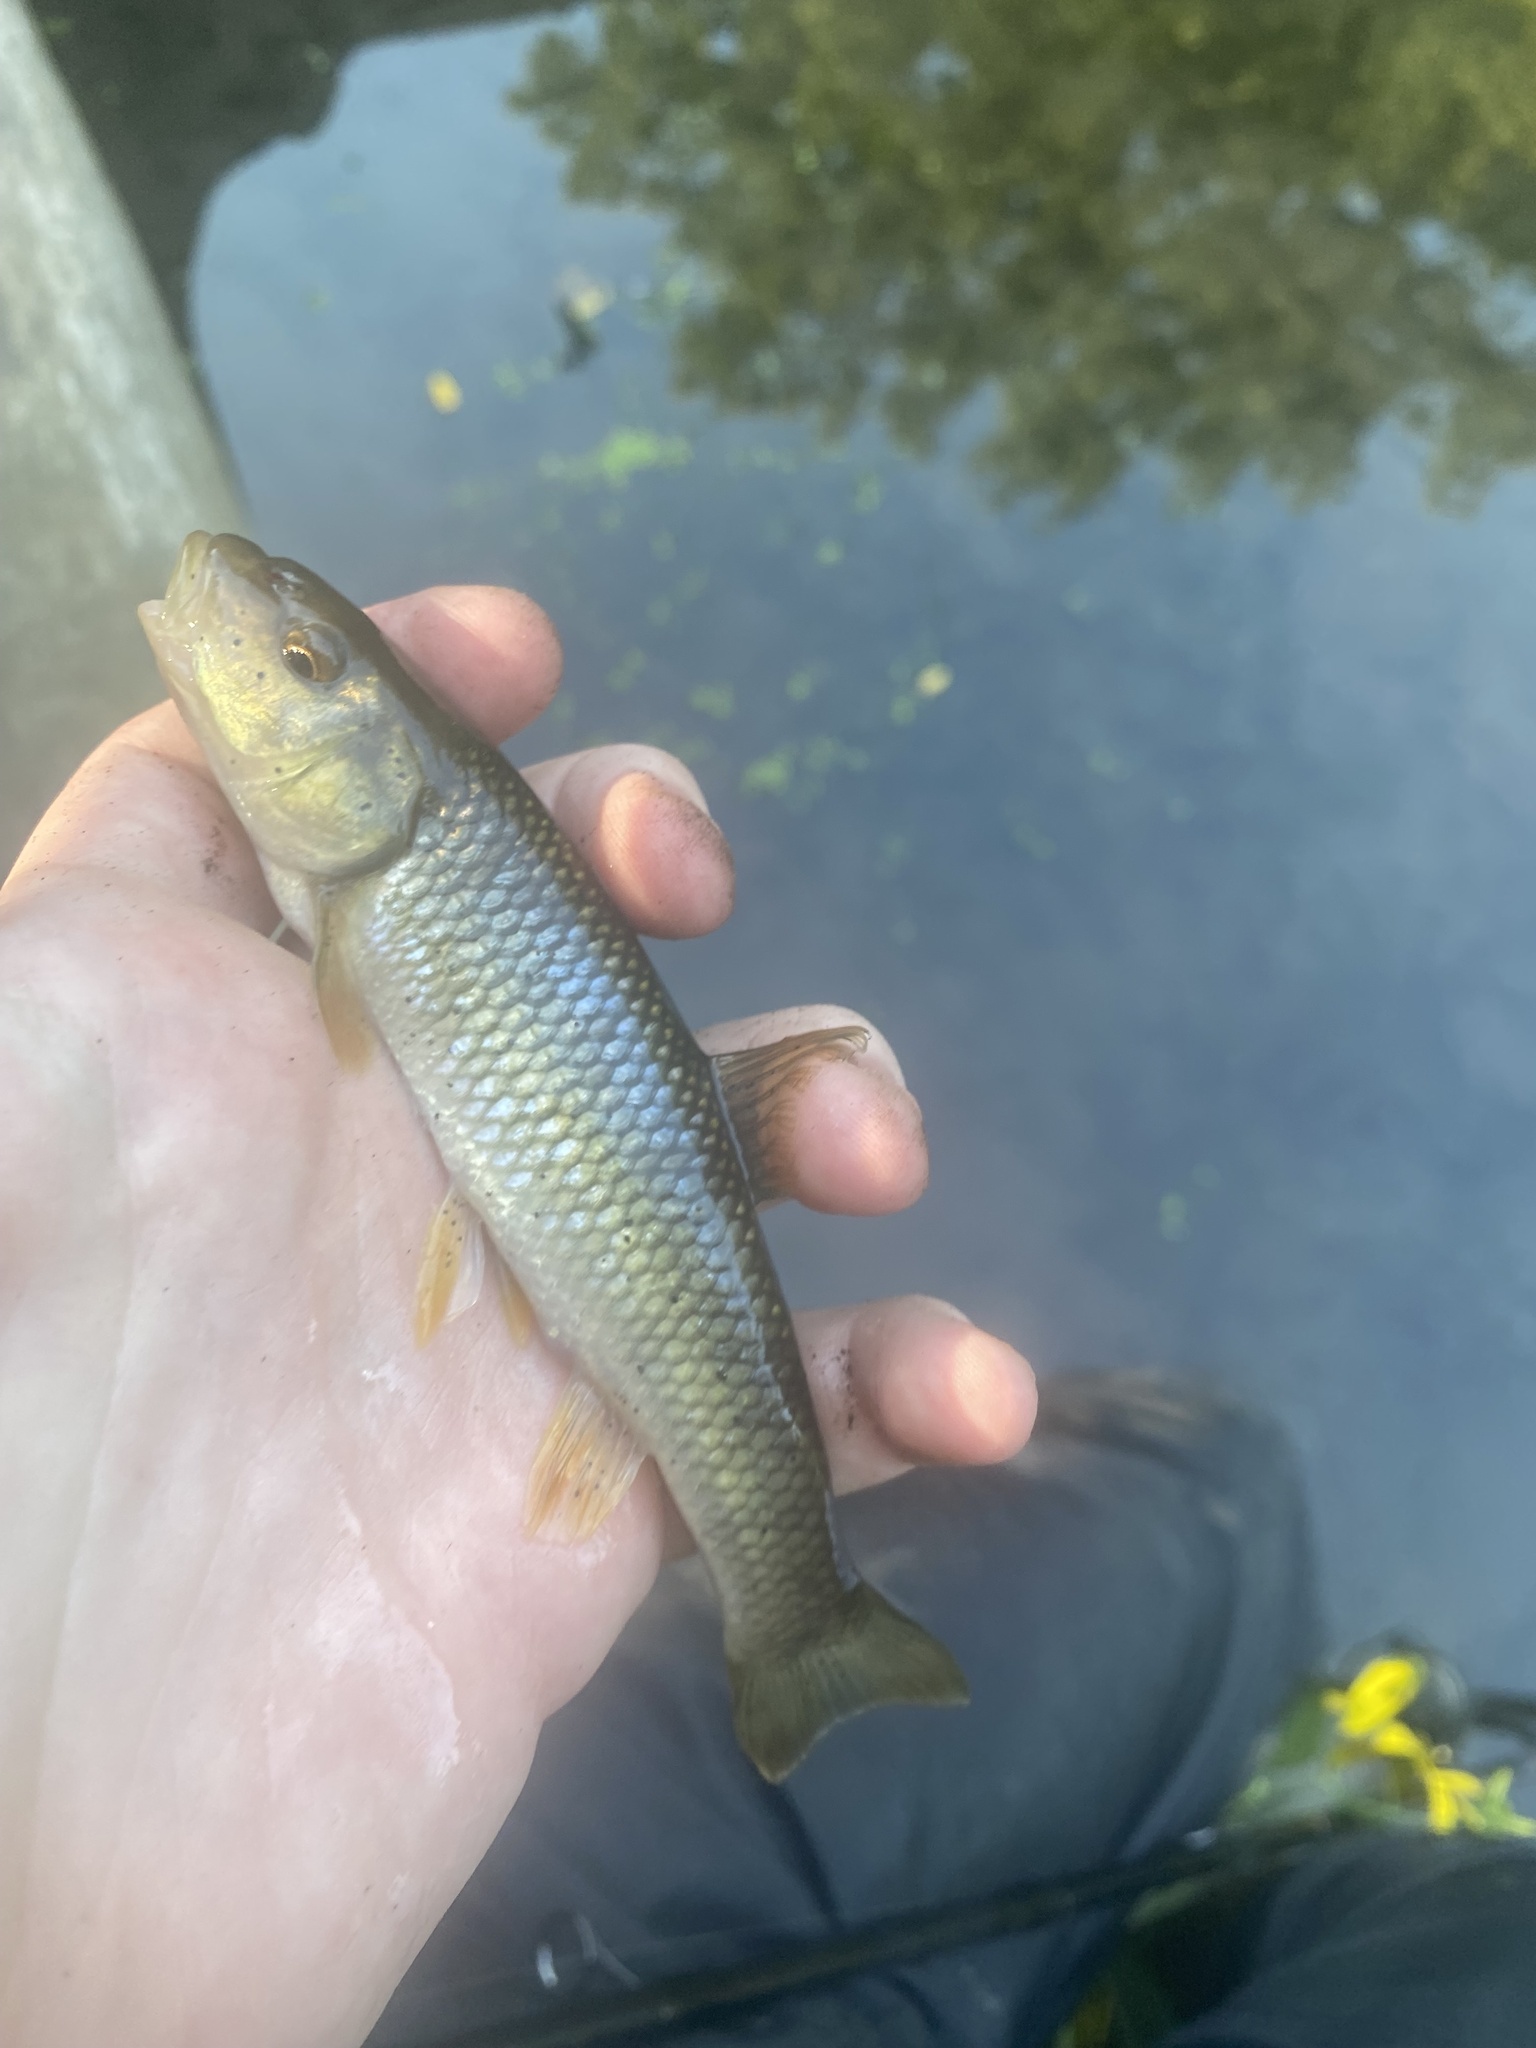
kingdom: Animalia
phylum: Chordata
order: Cypriniformes
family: Cyprinidae
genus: Nocomis
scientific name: Nocomis biguttatus
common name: Hornyhead chub
